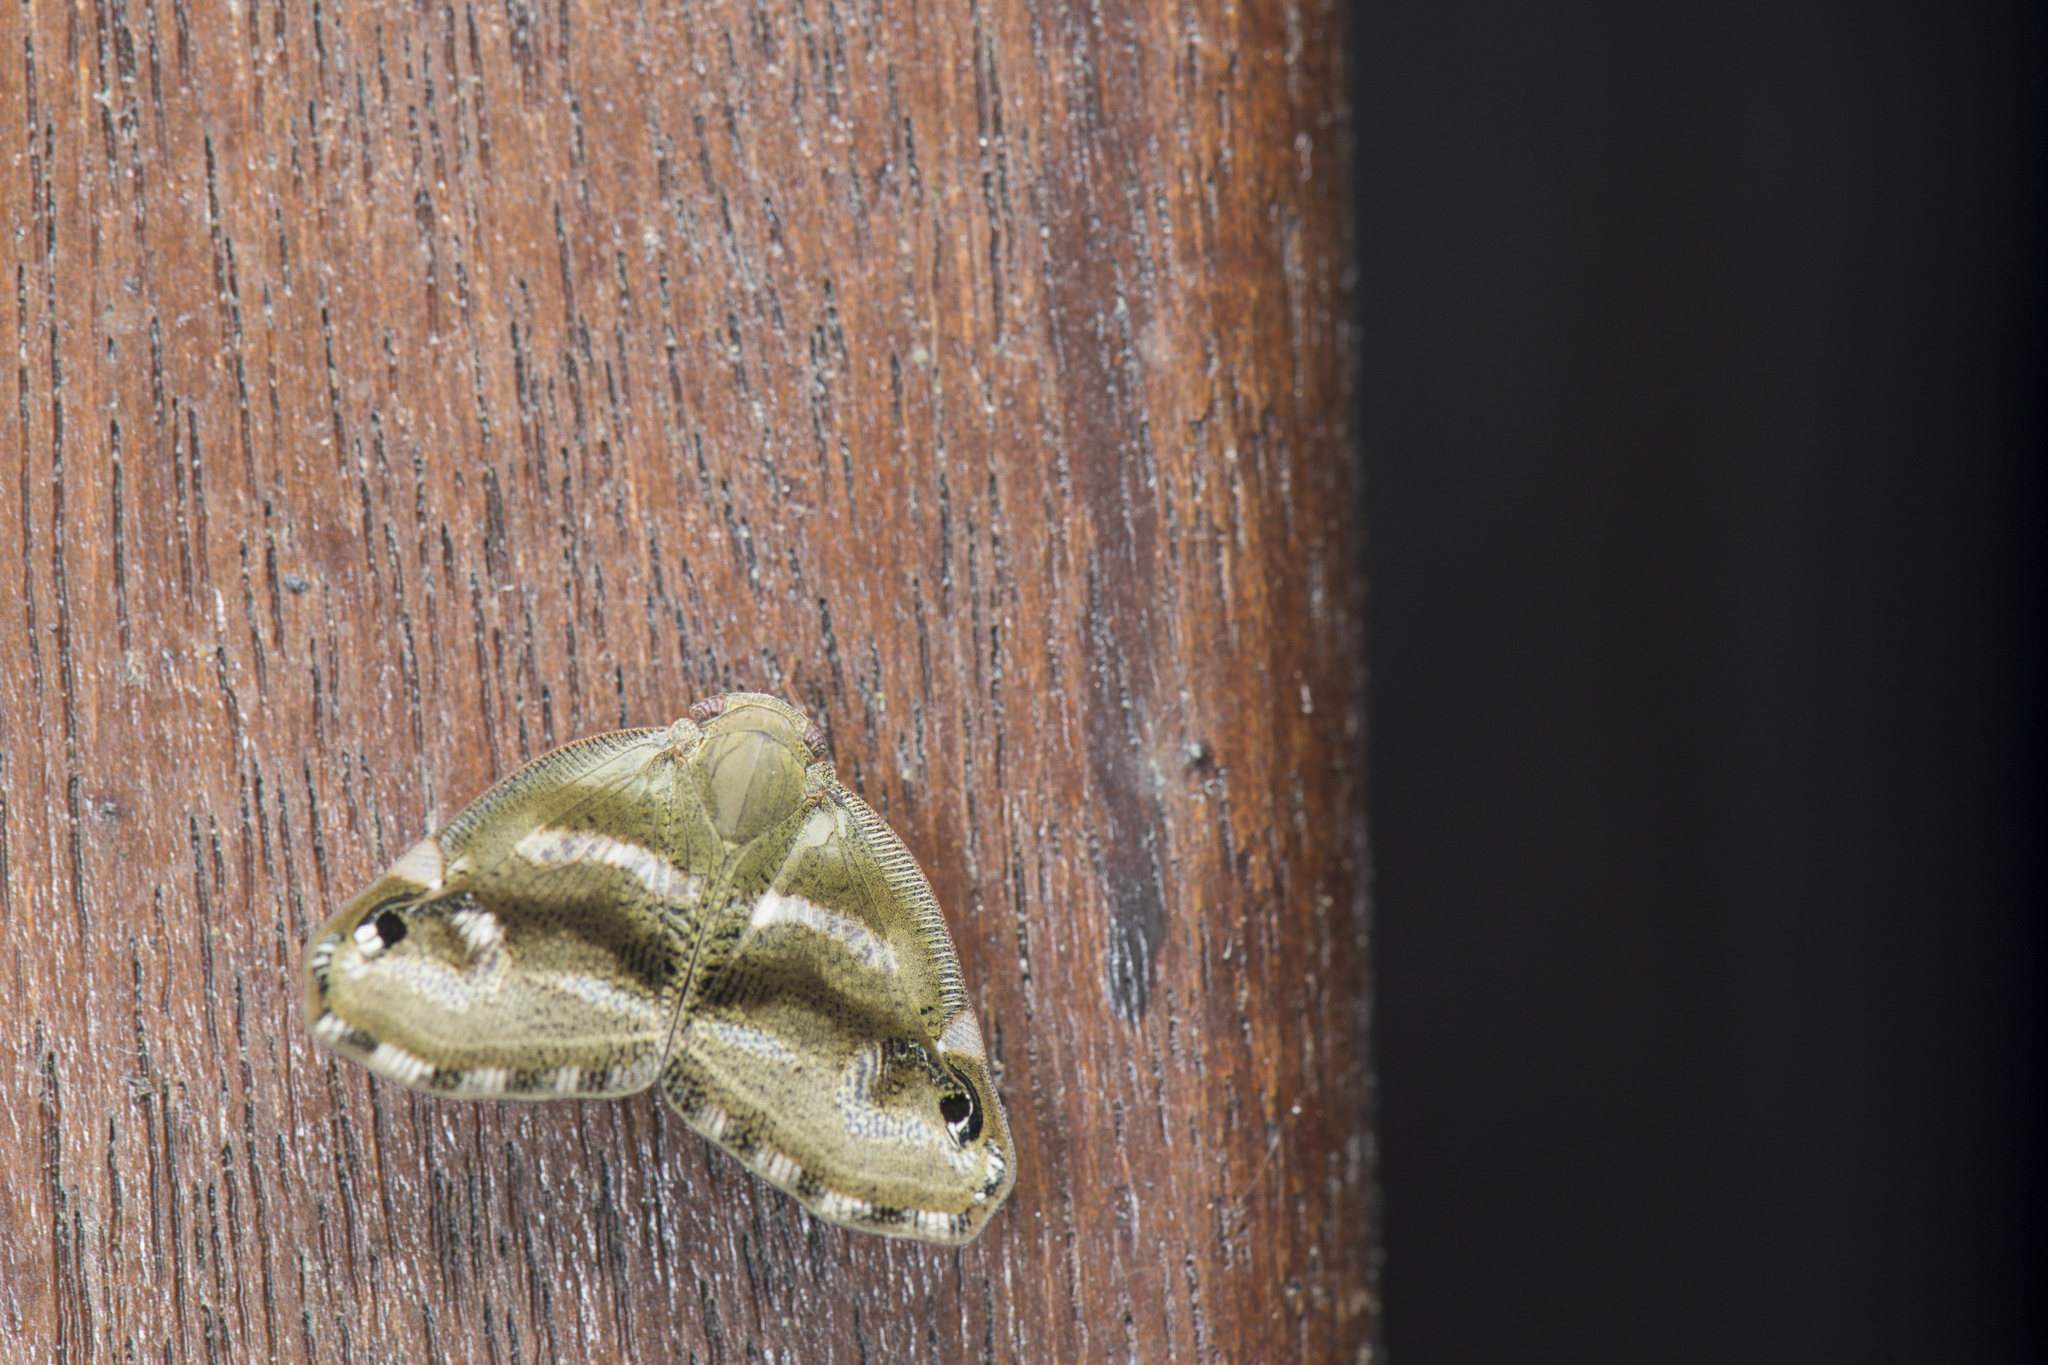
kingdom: Animalia
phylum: Arthropoda
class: Insecta
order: Hemiptera
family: Ricaniidae
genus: Ricania
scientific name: Ricania simulans
